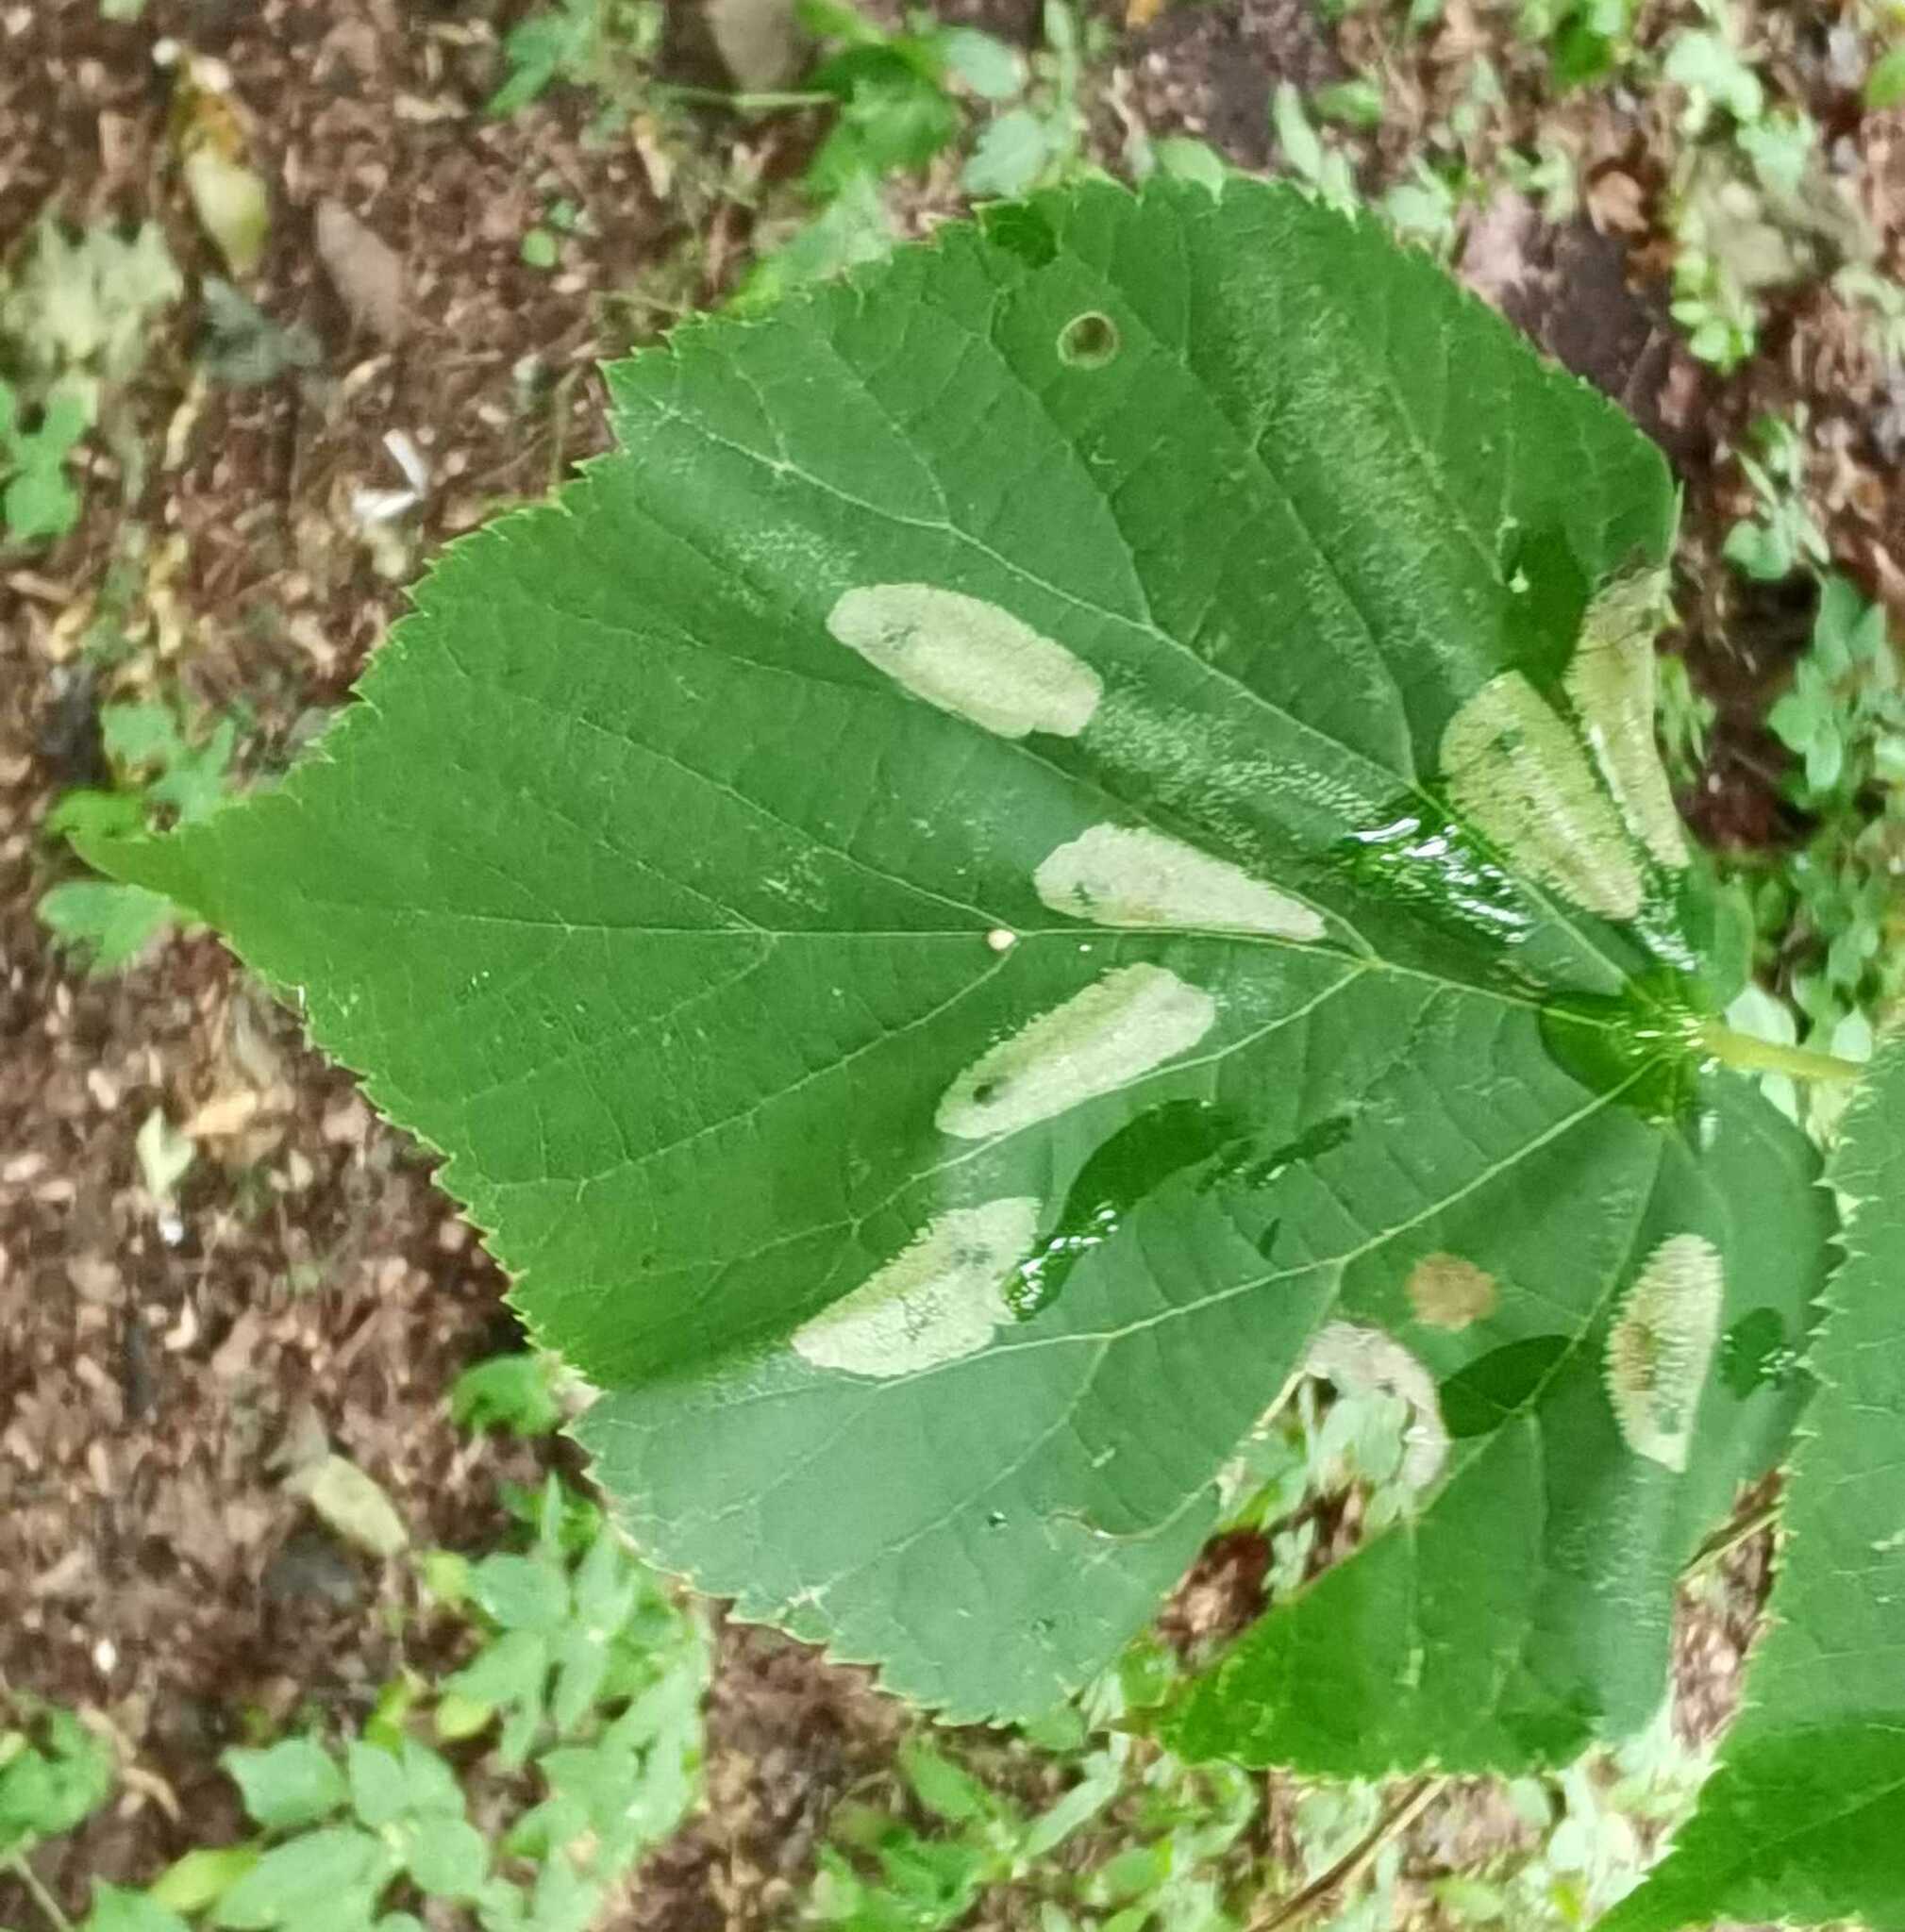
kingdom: Animalia
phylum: Arthropoda
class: Insecta
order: Lepidoptera
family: Gracillariidae
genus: Phyllonorycter
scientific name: Phyllonorycter issikii
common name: Linden midget
